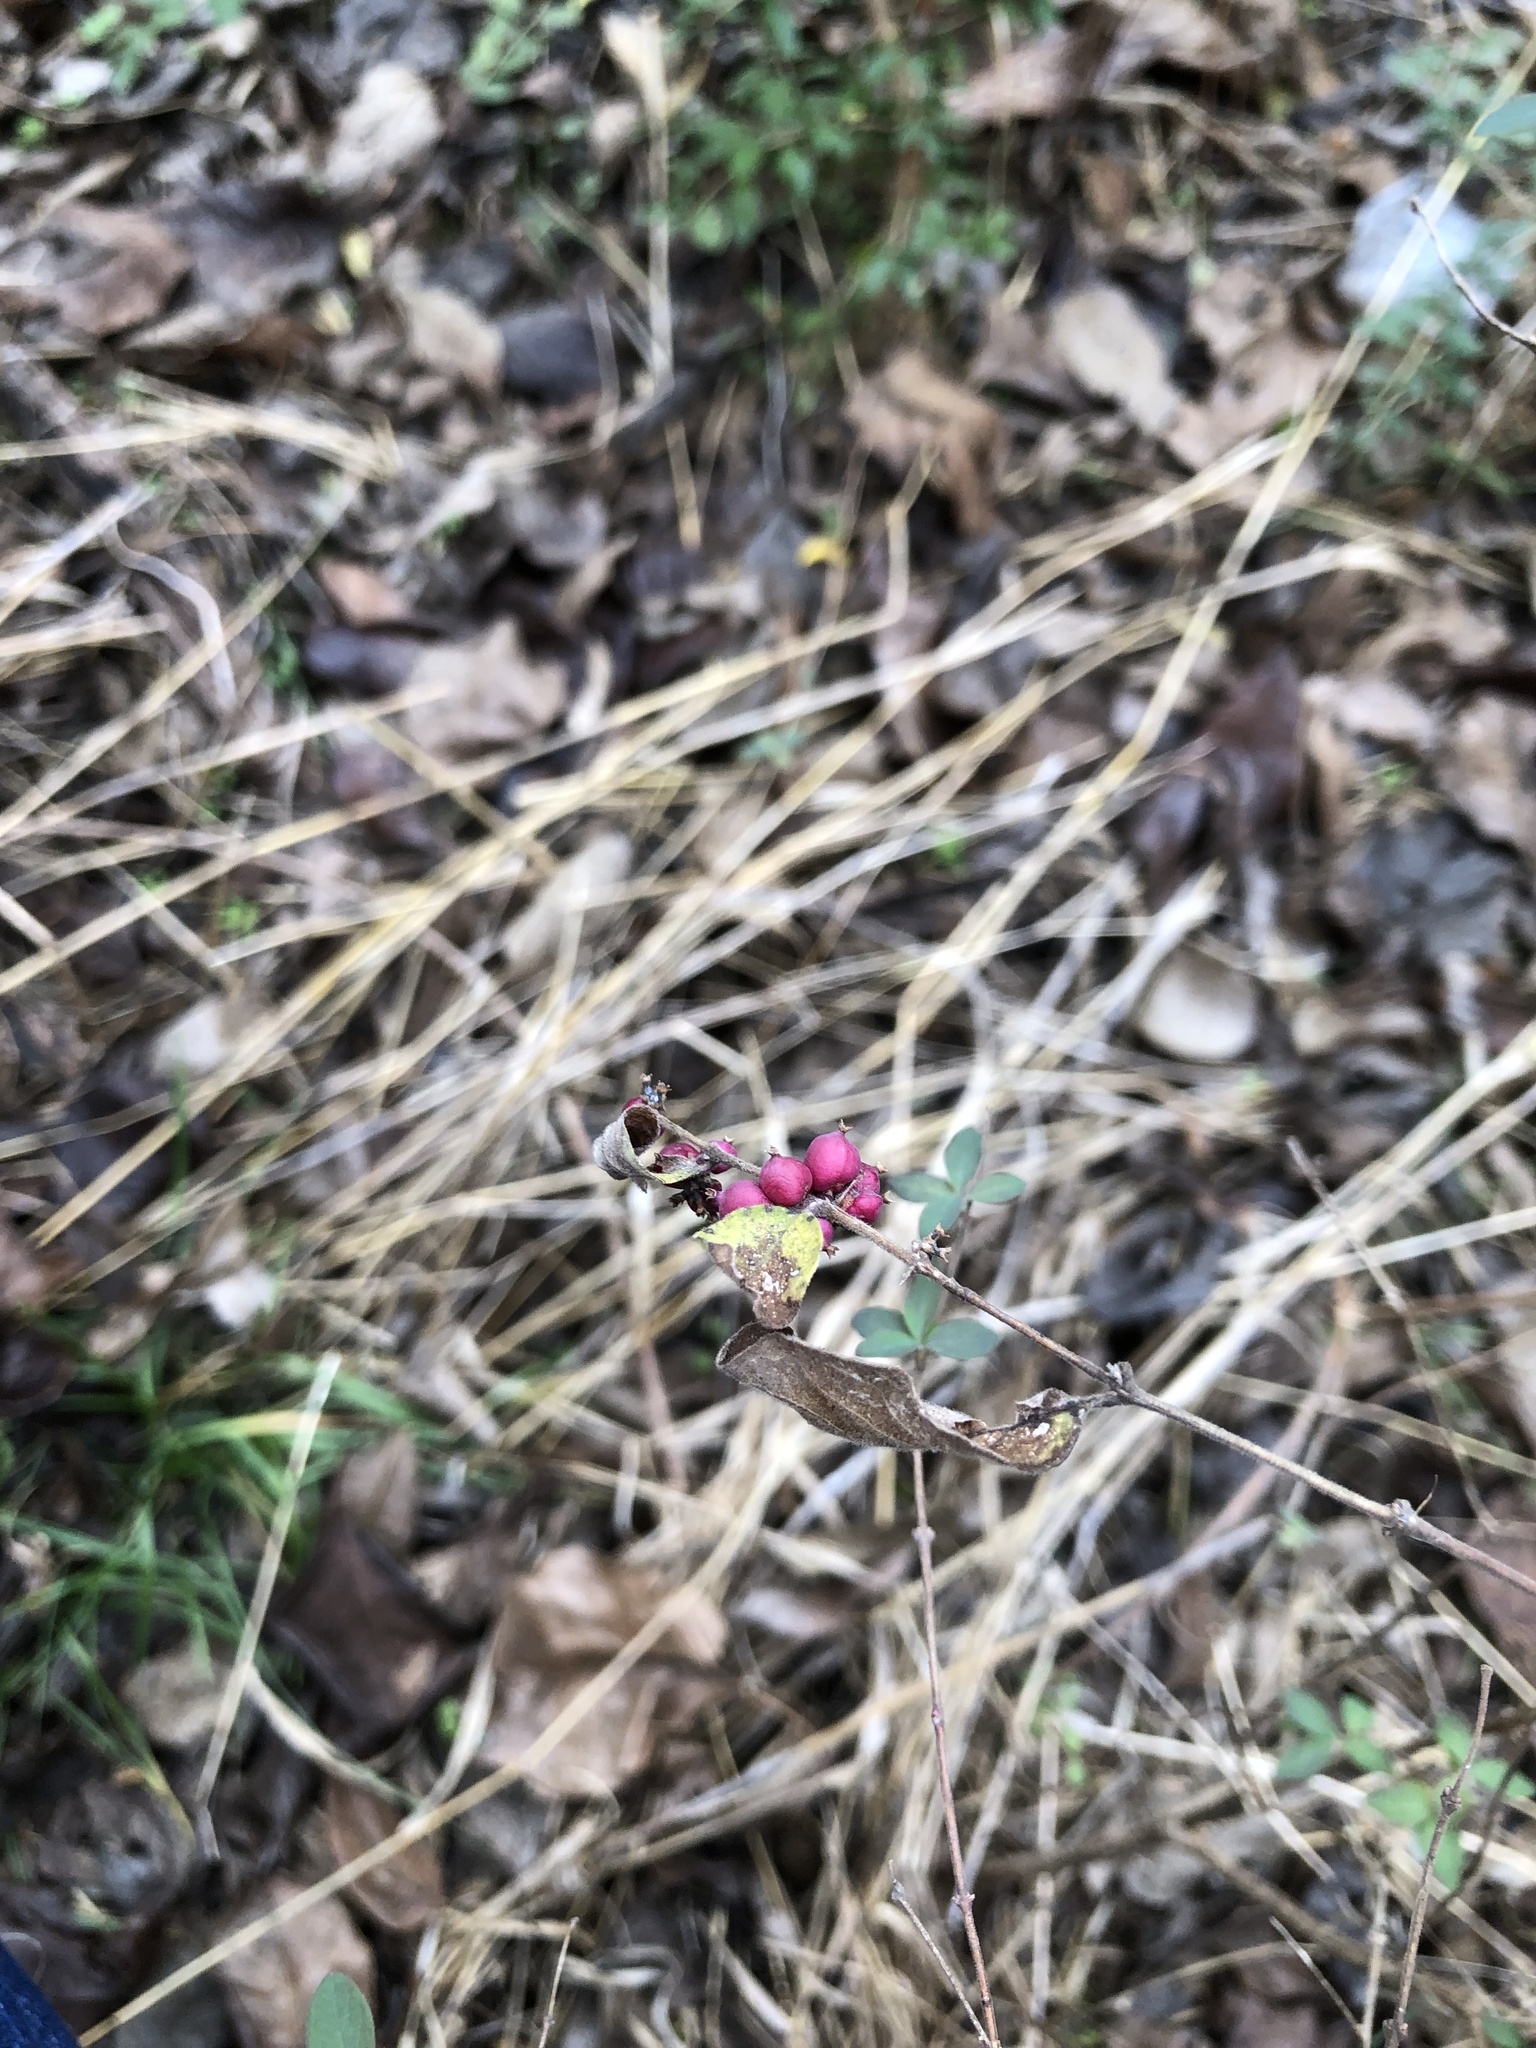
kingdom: Plantae
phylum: Tracheophyta
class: Magnoliopsida
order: Dipsacales
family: Caprifoliaceae
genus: Symphoricarpos
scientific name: Symphoricarpos orbiculatus
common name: Coralberry
